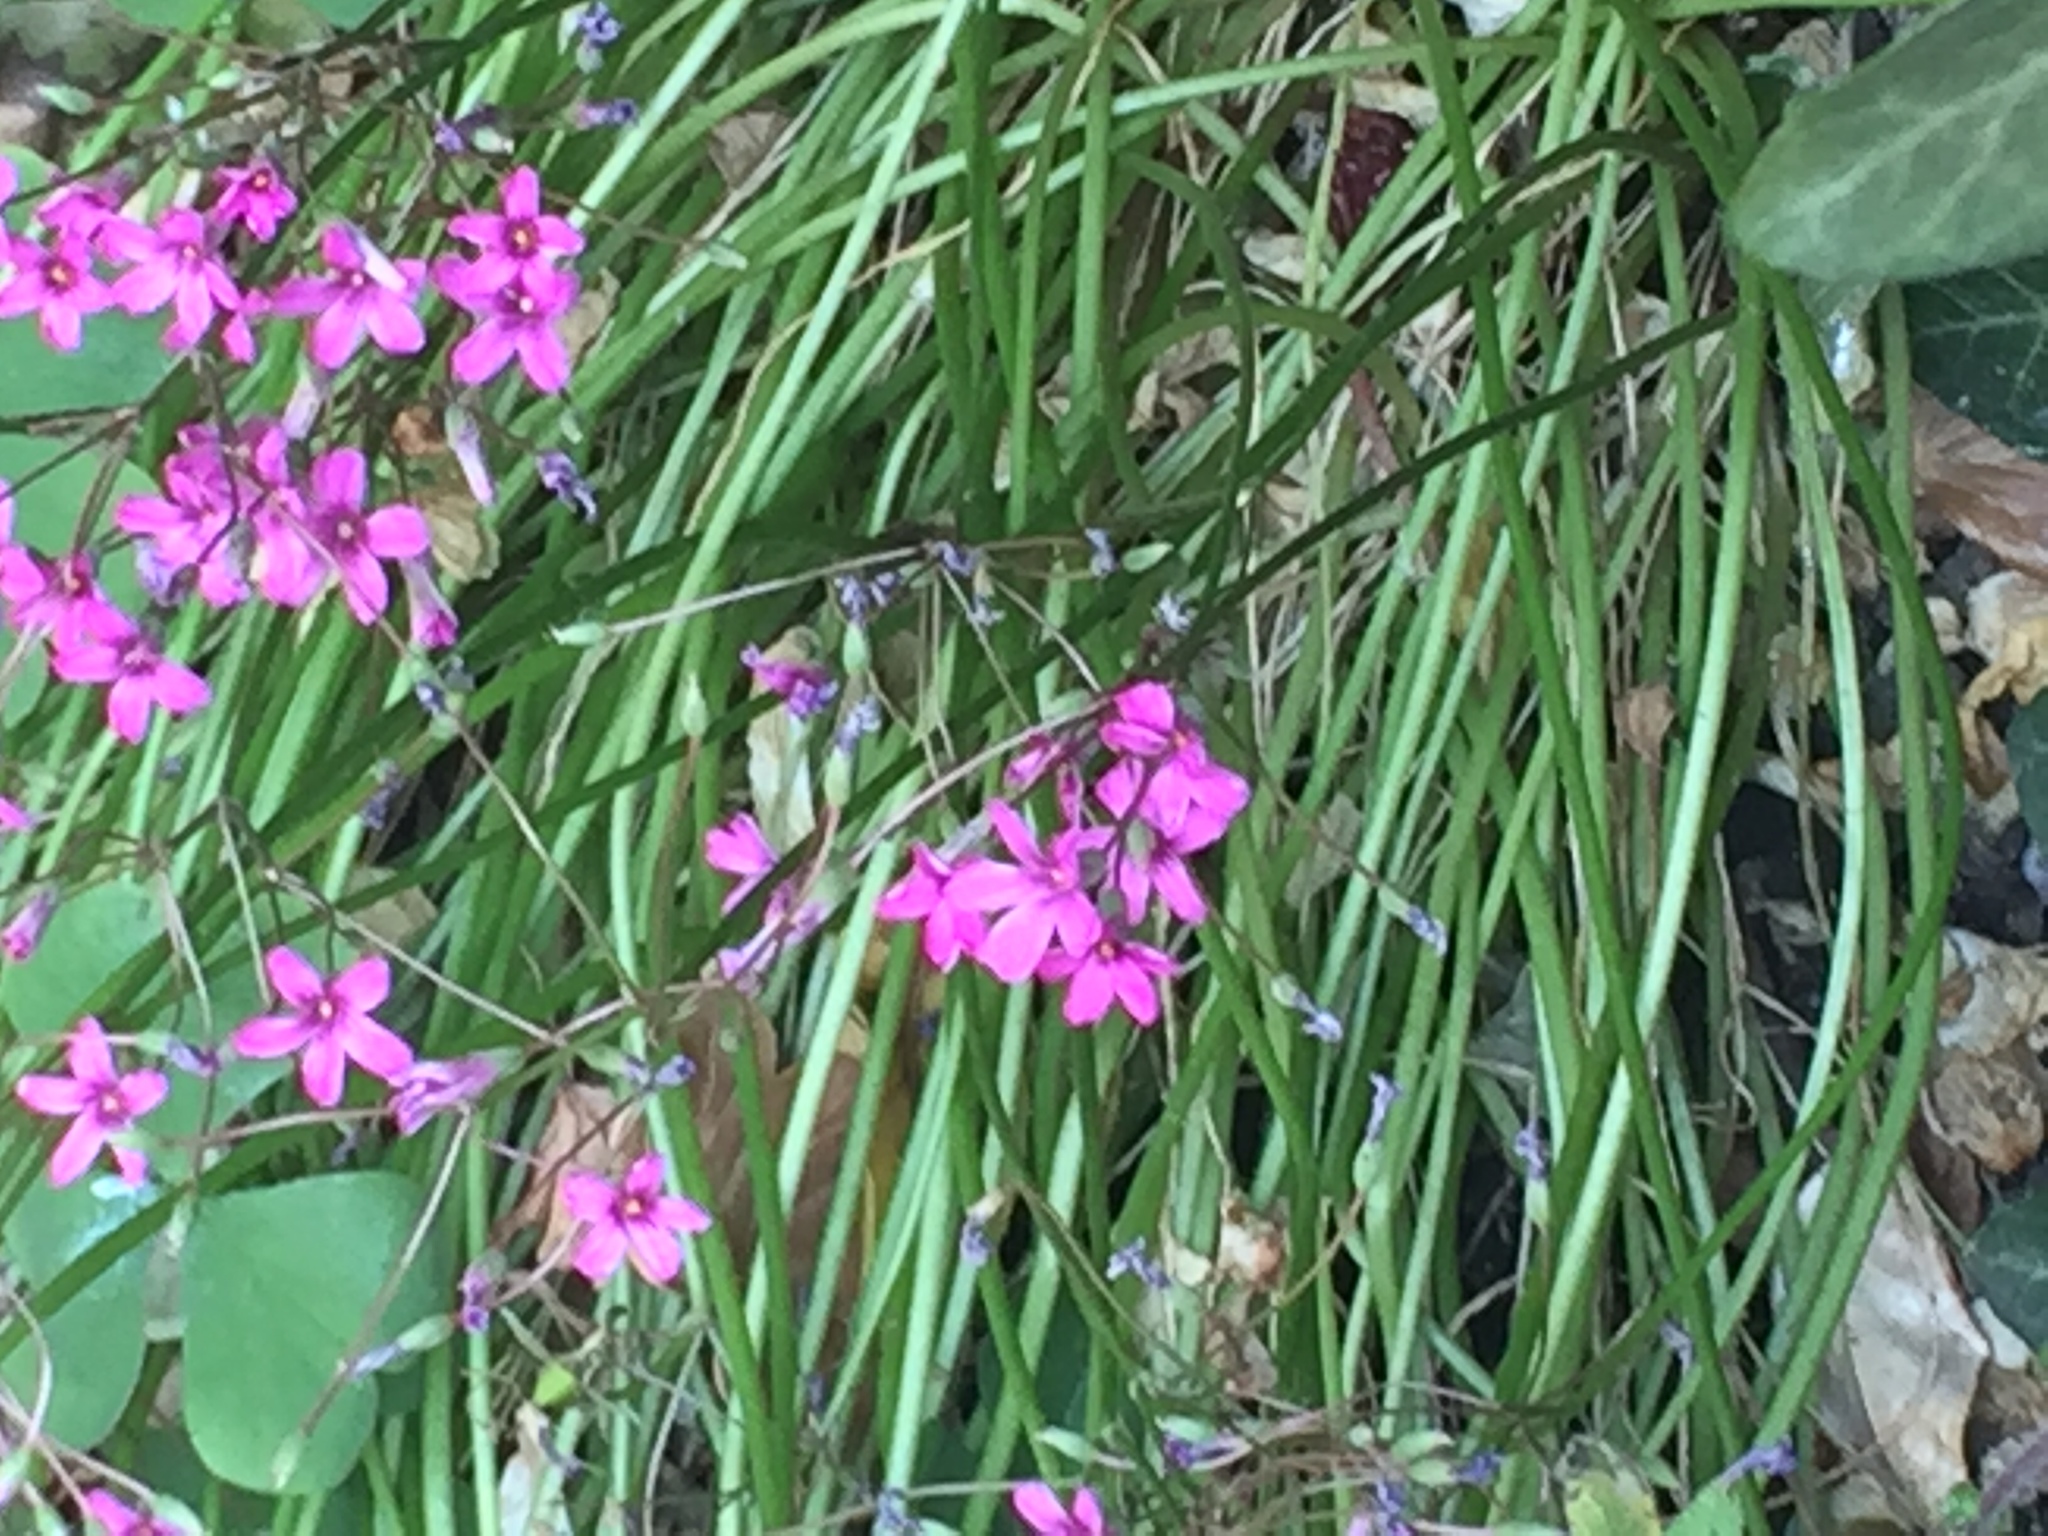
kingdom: Plantae
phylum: Tracheophyta
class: Magnoliopsida
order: Oxalidales
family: Oxalidaceae
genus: Oxalis
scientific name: Oxalis articulata
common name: Pink-sorrel
